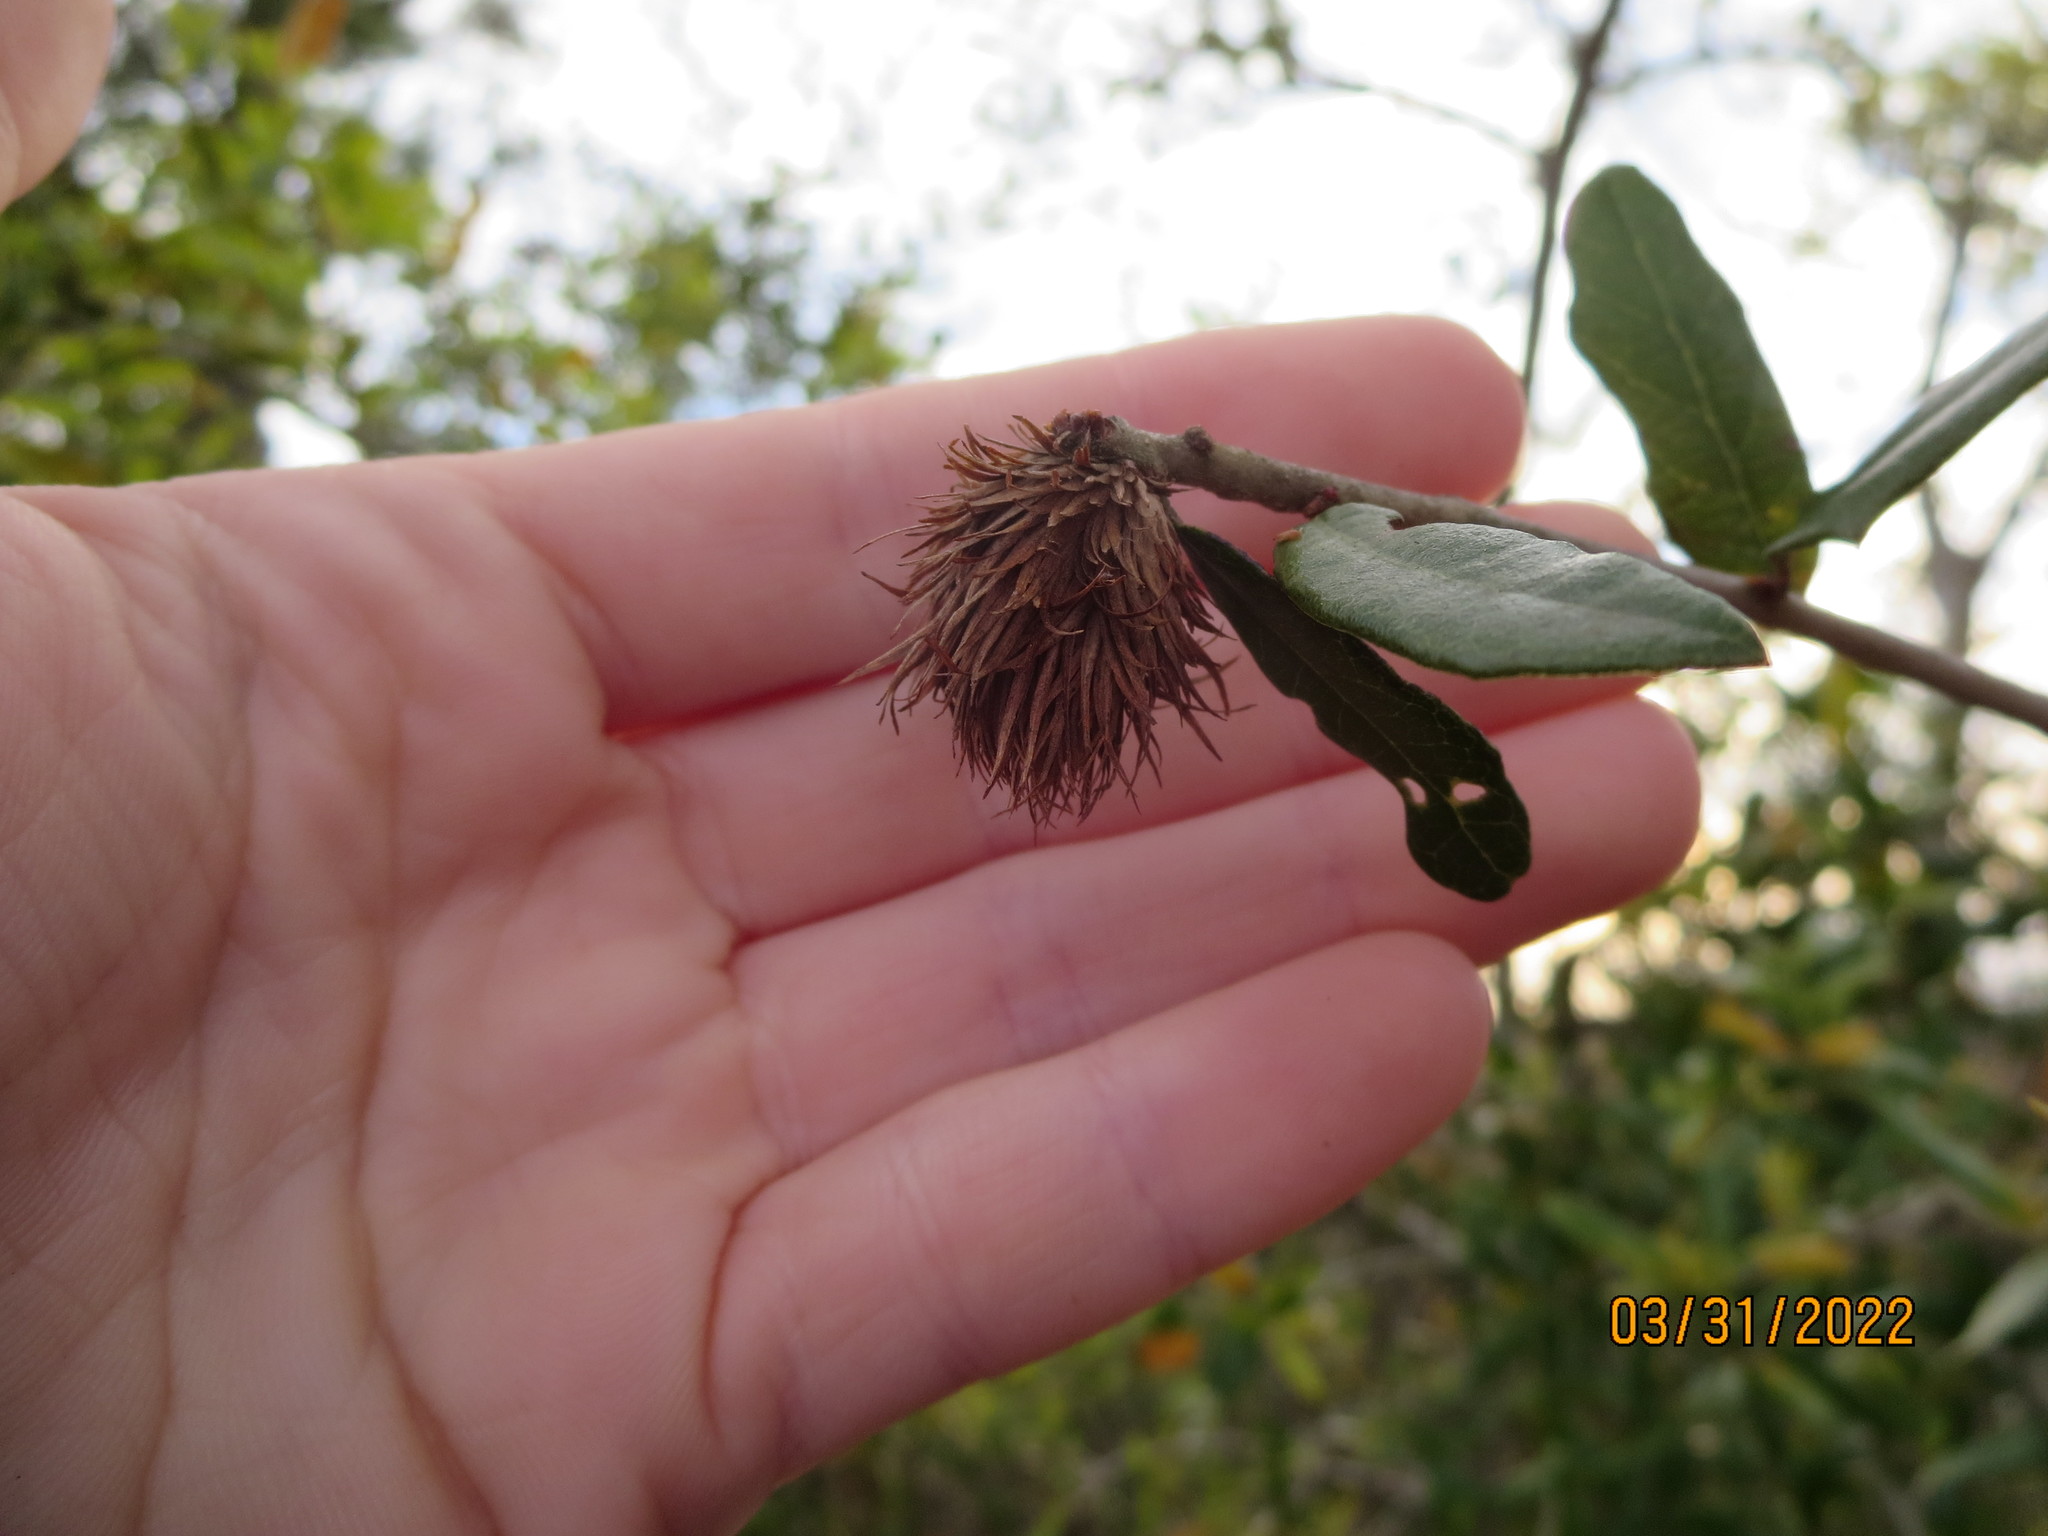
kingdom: Animalia
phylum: Arthropoda
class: Insecta
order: Hymenoptera
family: Cynipidae
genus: Andricus
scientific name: Andricus quercusfoliatus
